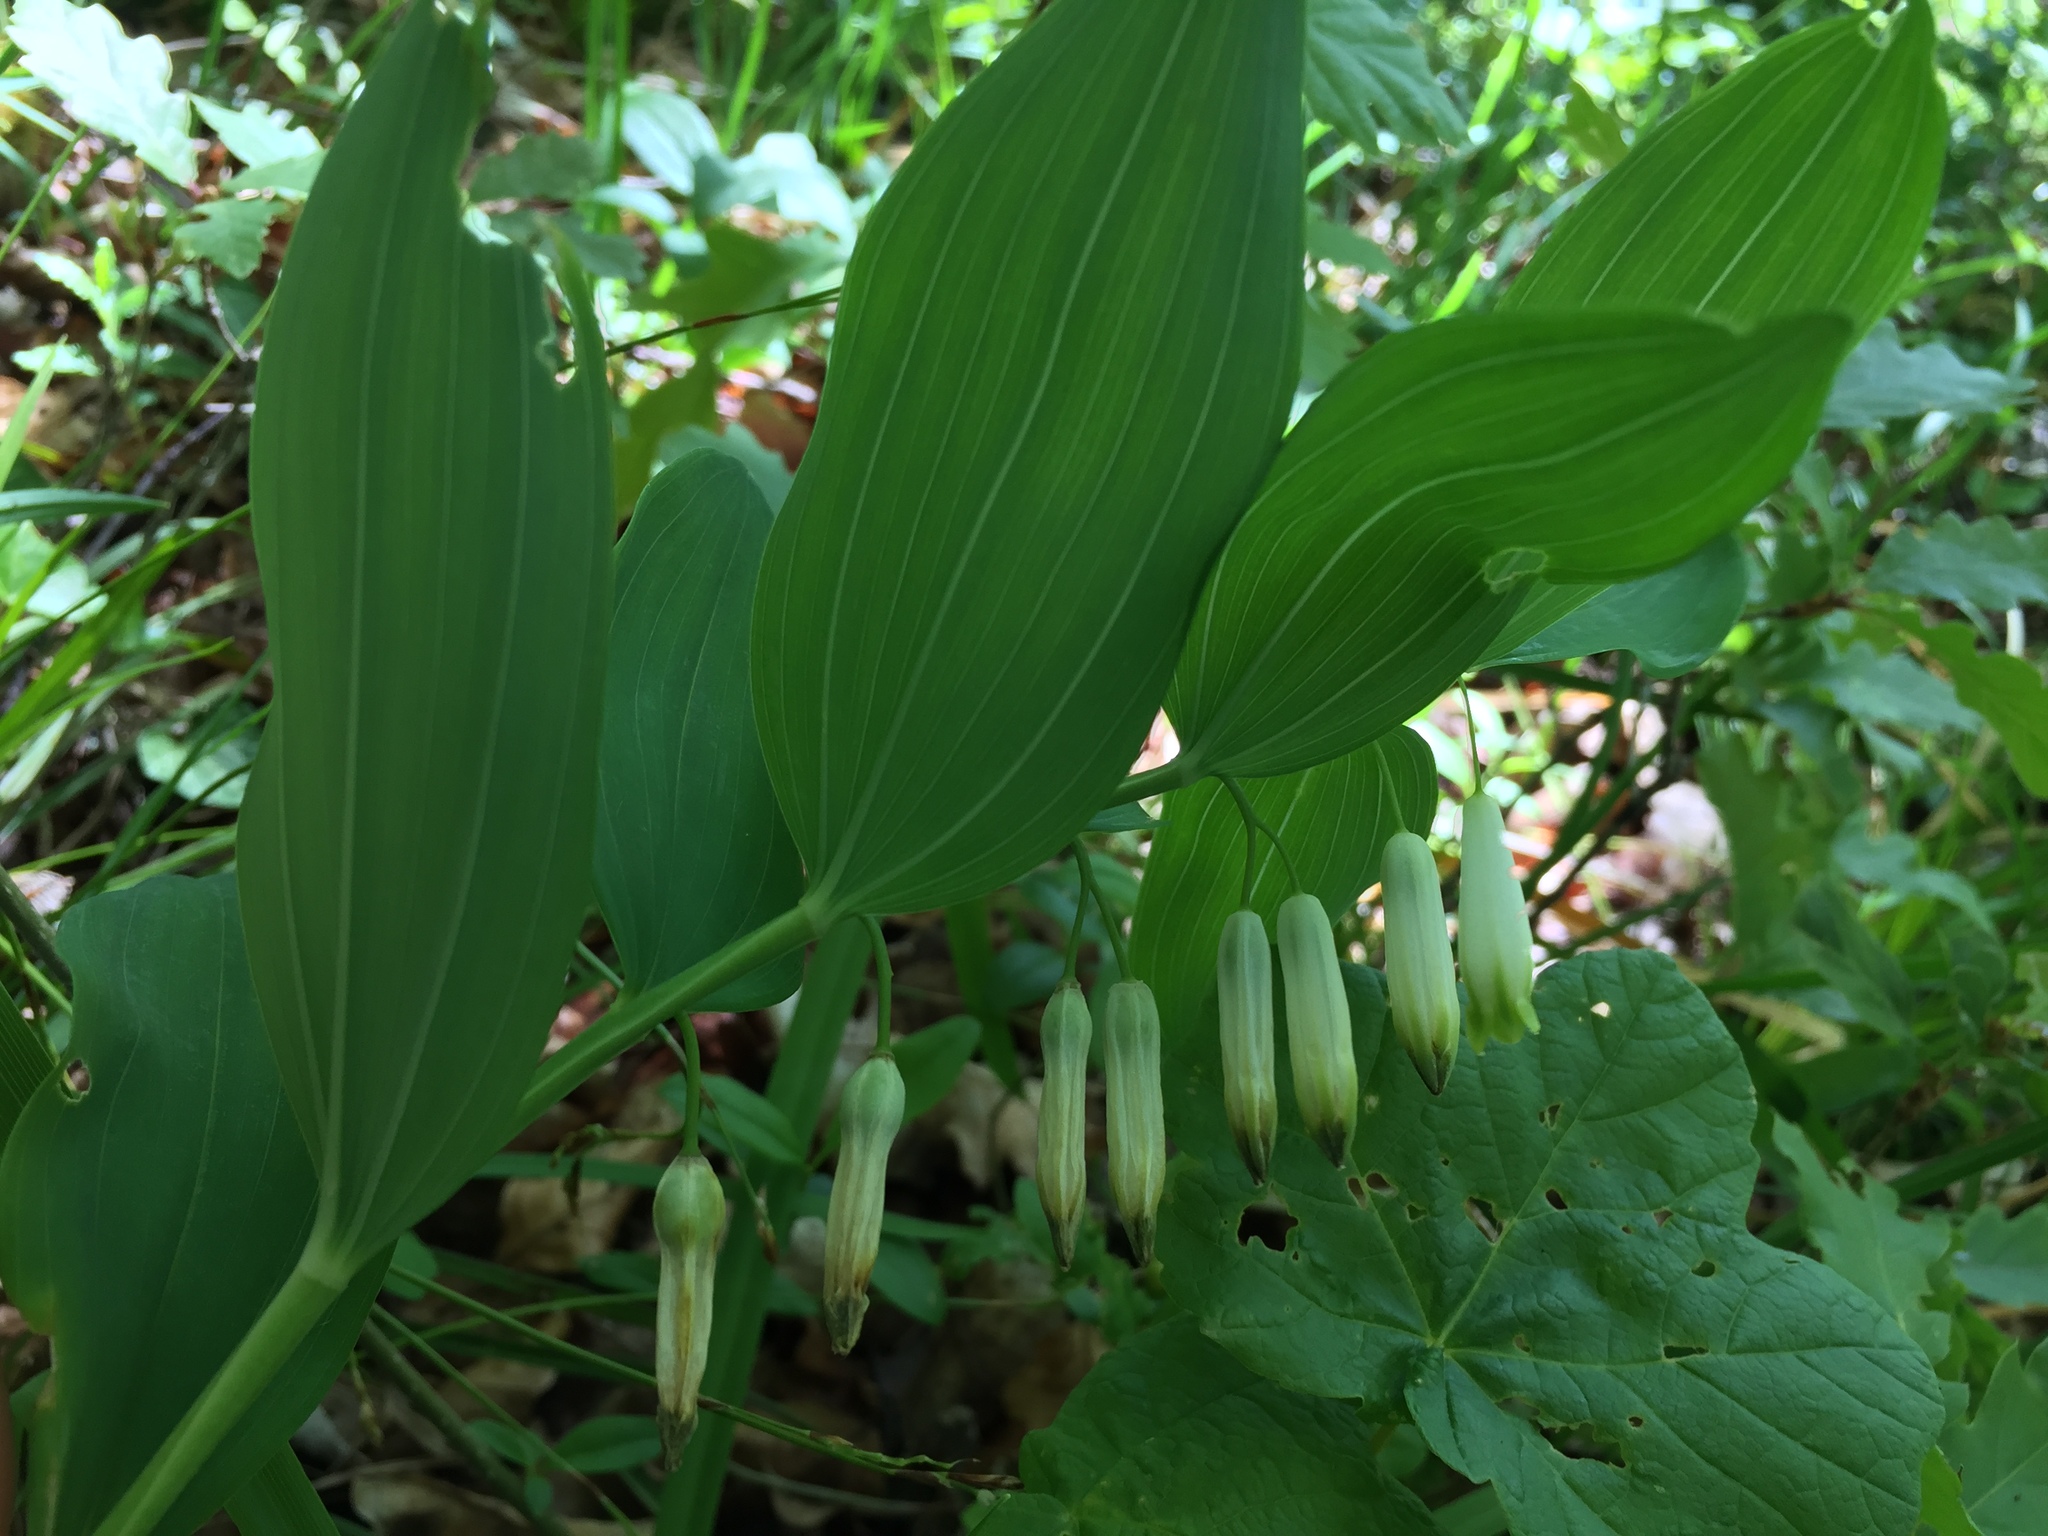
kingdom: Plantae
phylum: Tracheophyta
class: Liliopsida
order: Asparagales
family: Asparagaceae
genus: Polygonatum
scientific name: Polygonatum odoratum
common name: Angular solomon's-seal
